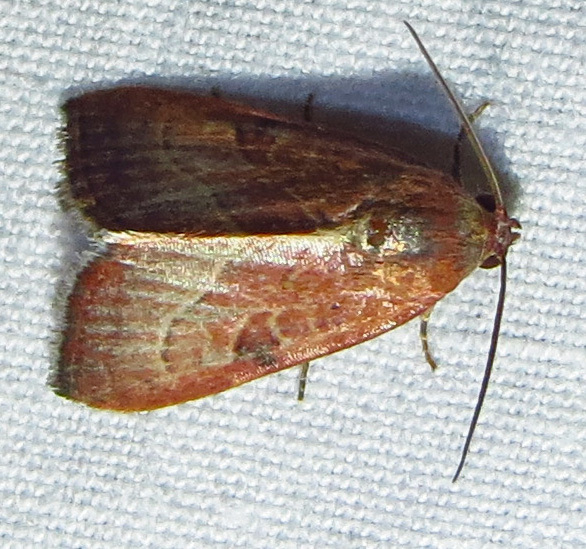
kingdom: Animalia
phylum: Arthropoda
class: Insecta
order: Lepidoptera
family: Noctuidae
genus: Galgula
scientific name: Galgula partita
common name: Wedgeling
